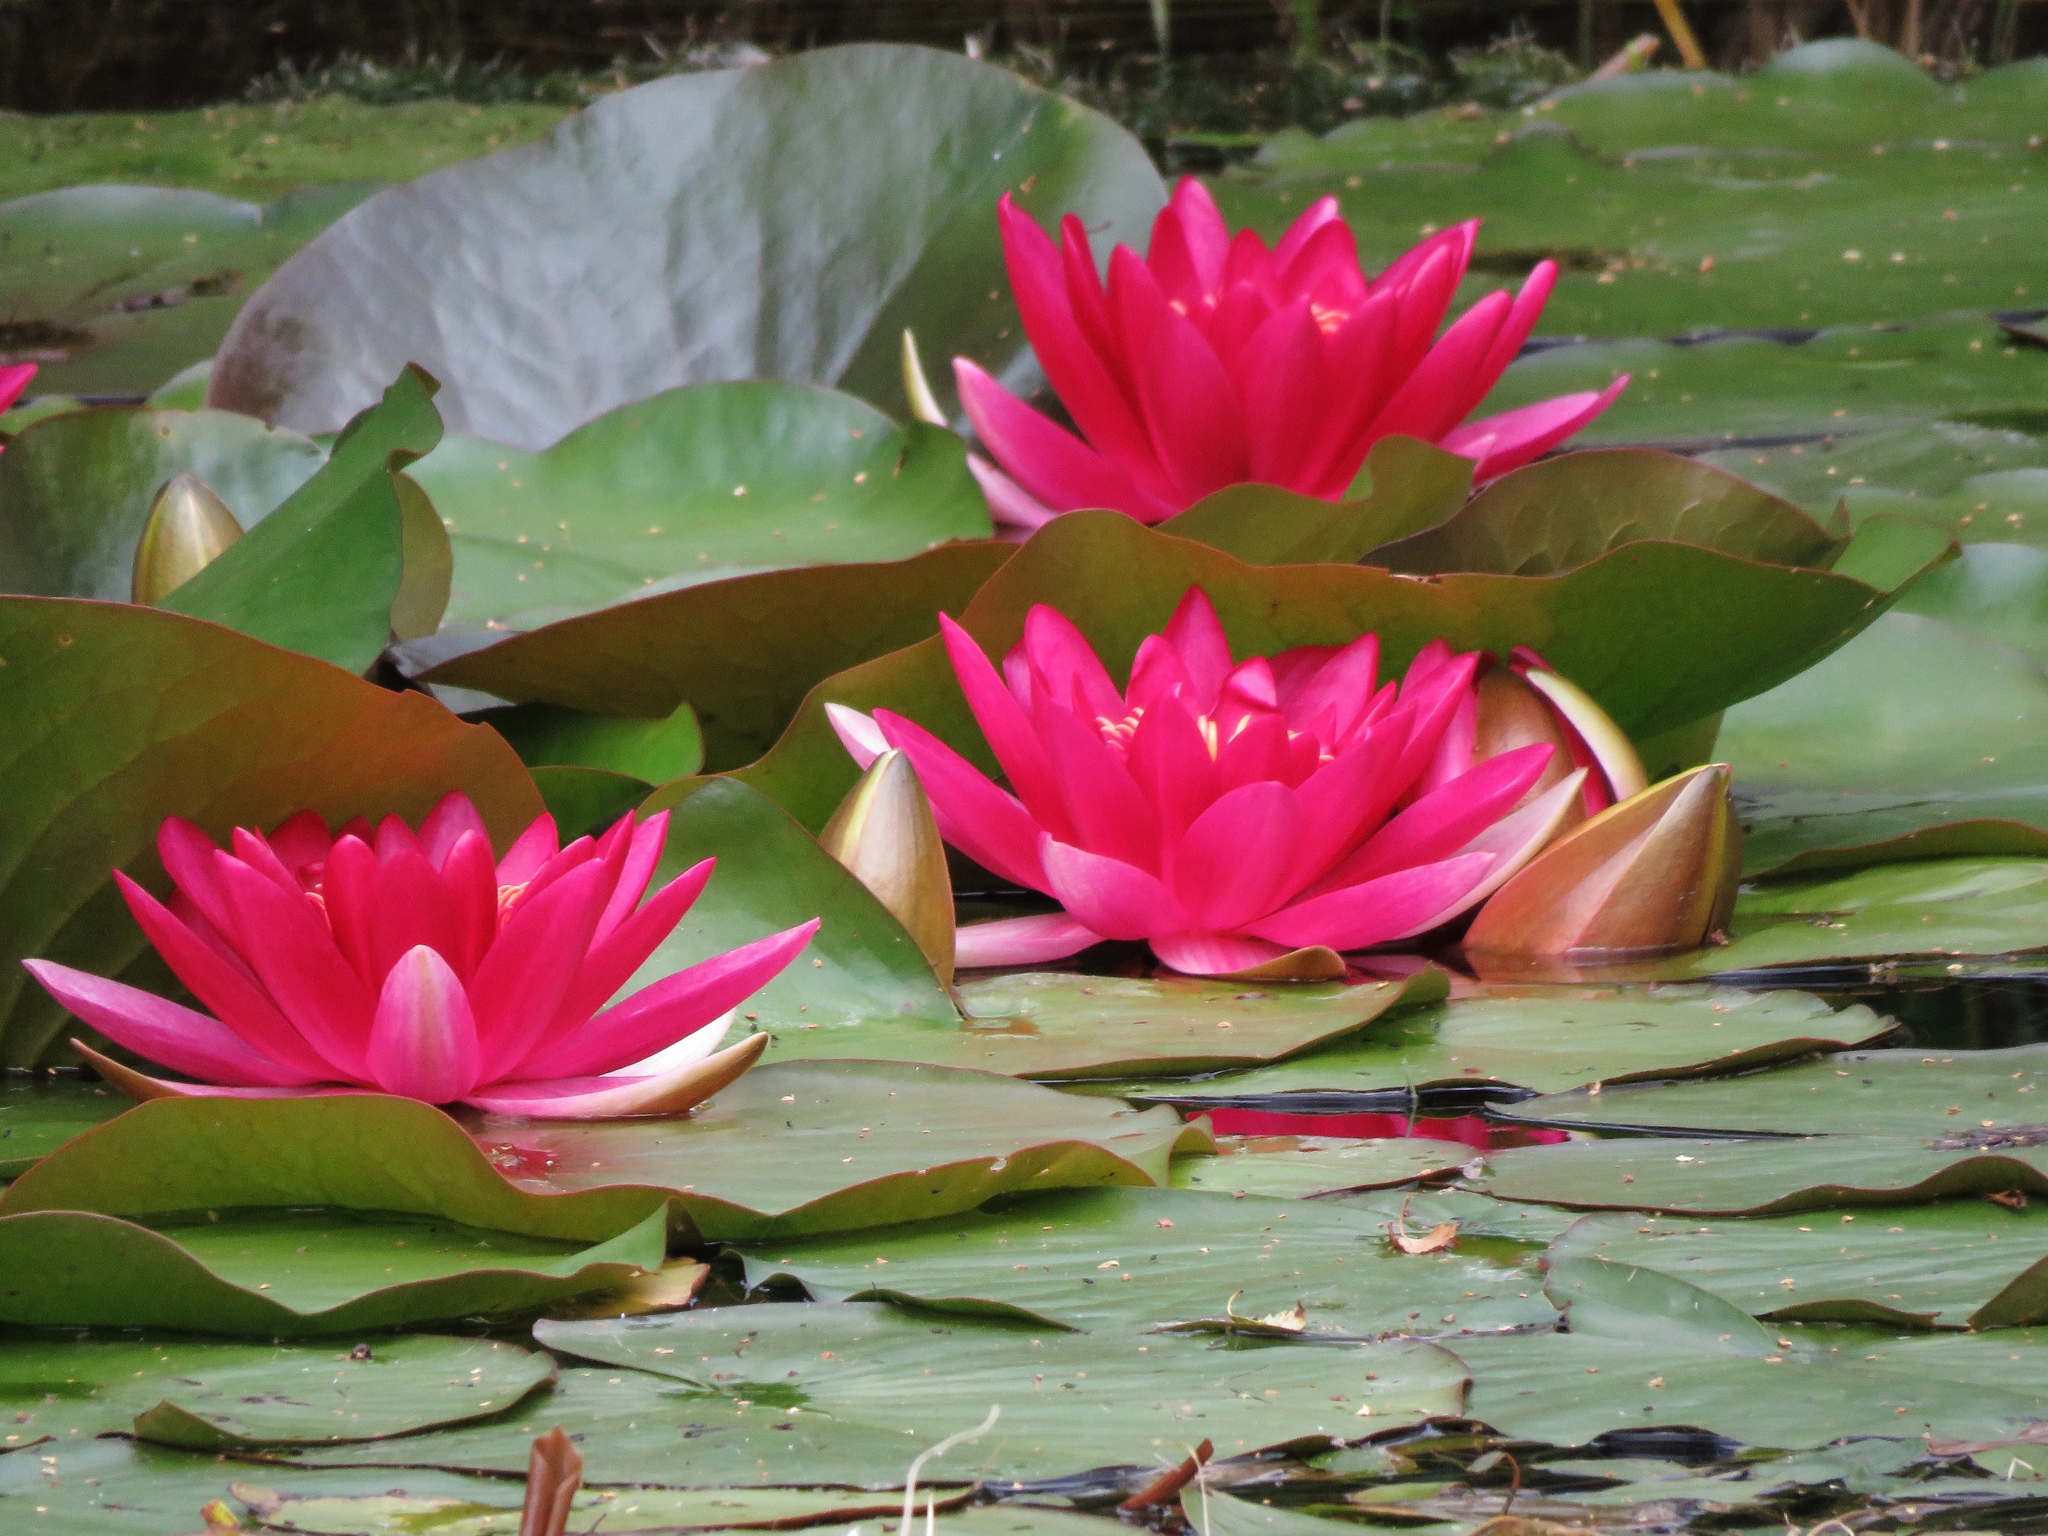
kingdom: Plantae
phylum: Tracheophyta
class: Magnoliopsida
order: Nymphaeales
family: Nymphaeaceae
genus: Nymphaea
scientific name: Nymphaea khurooi
